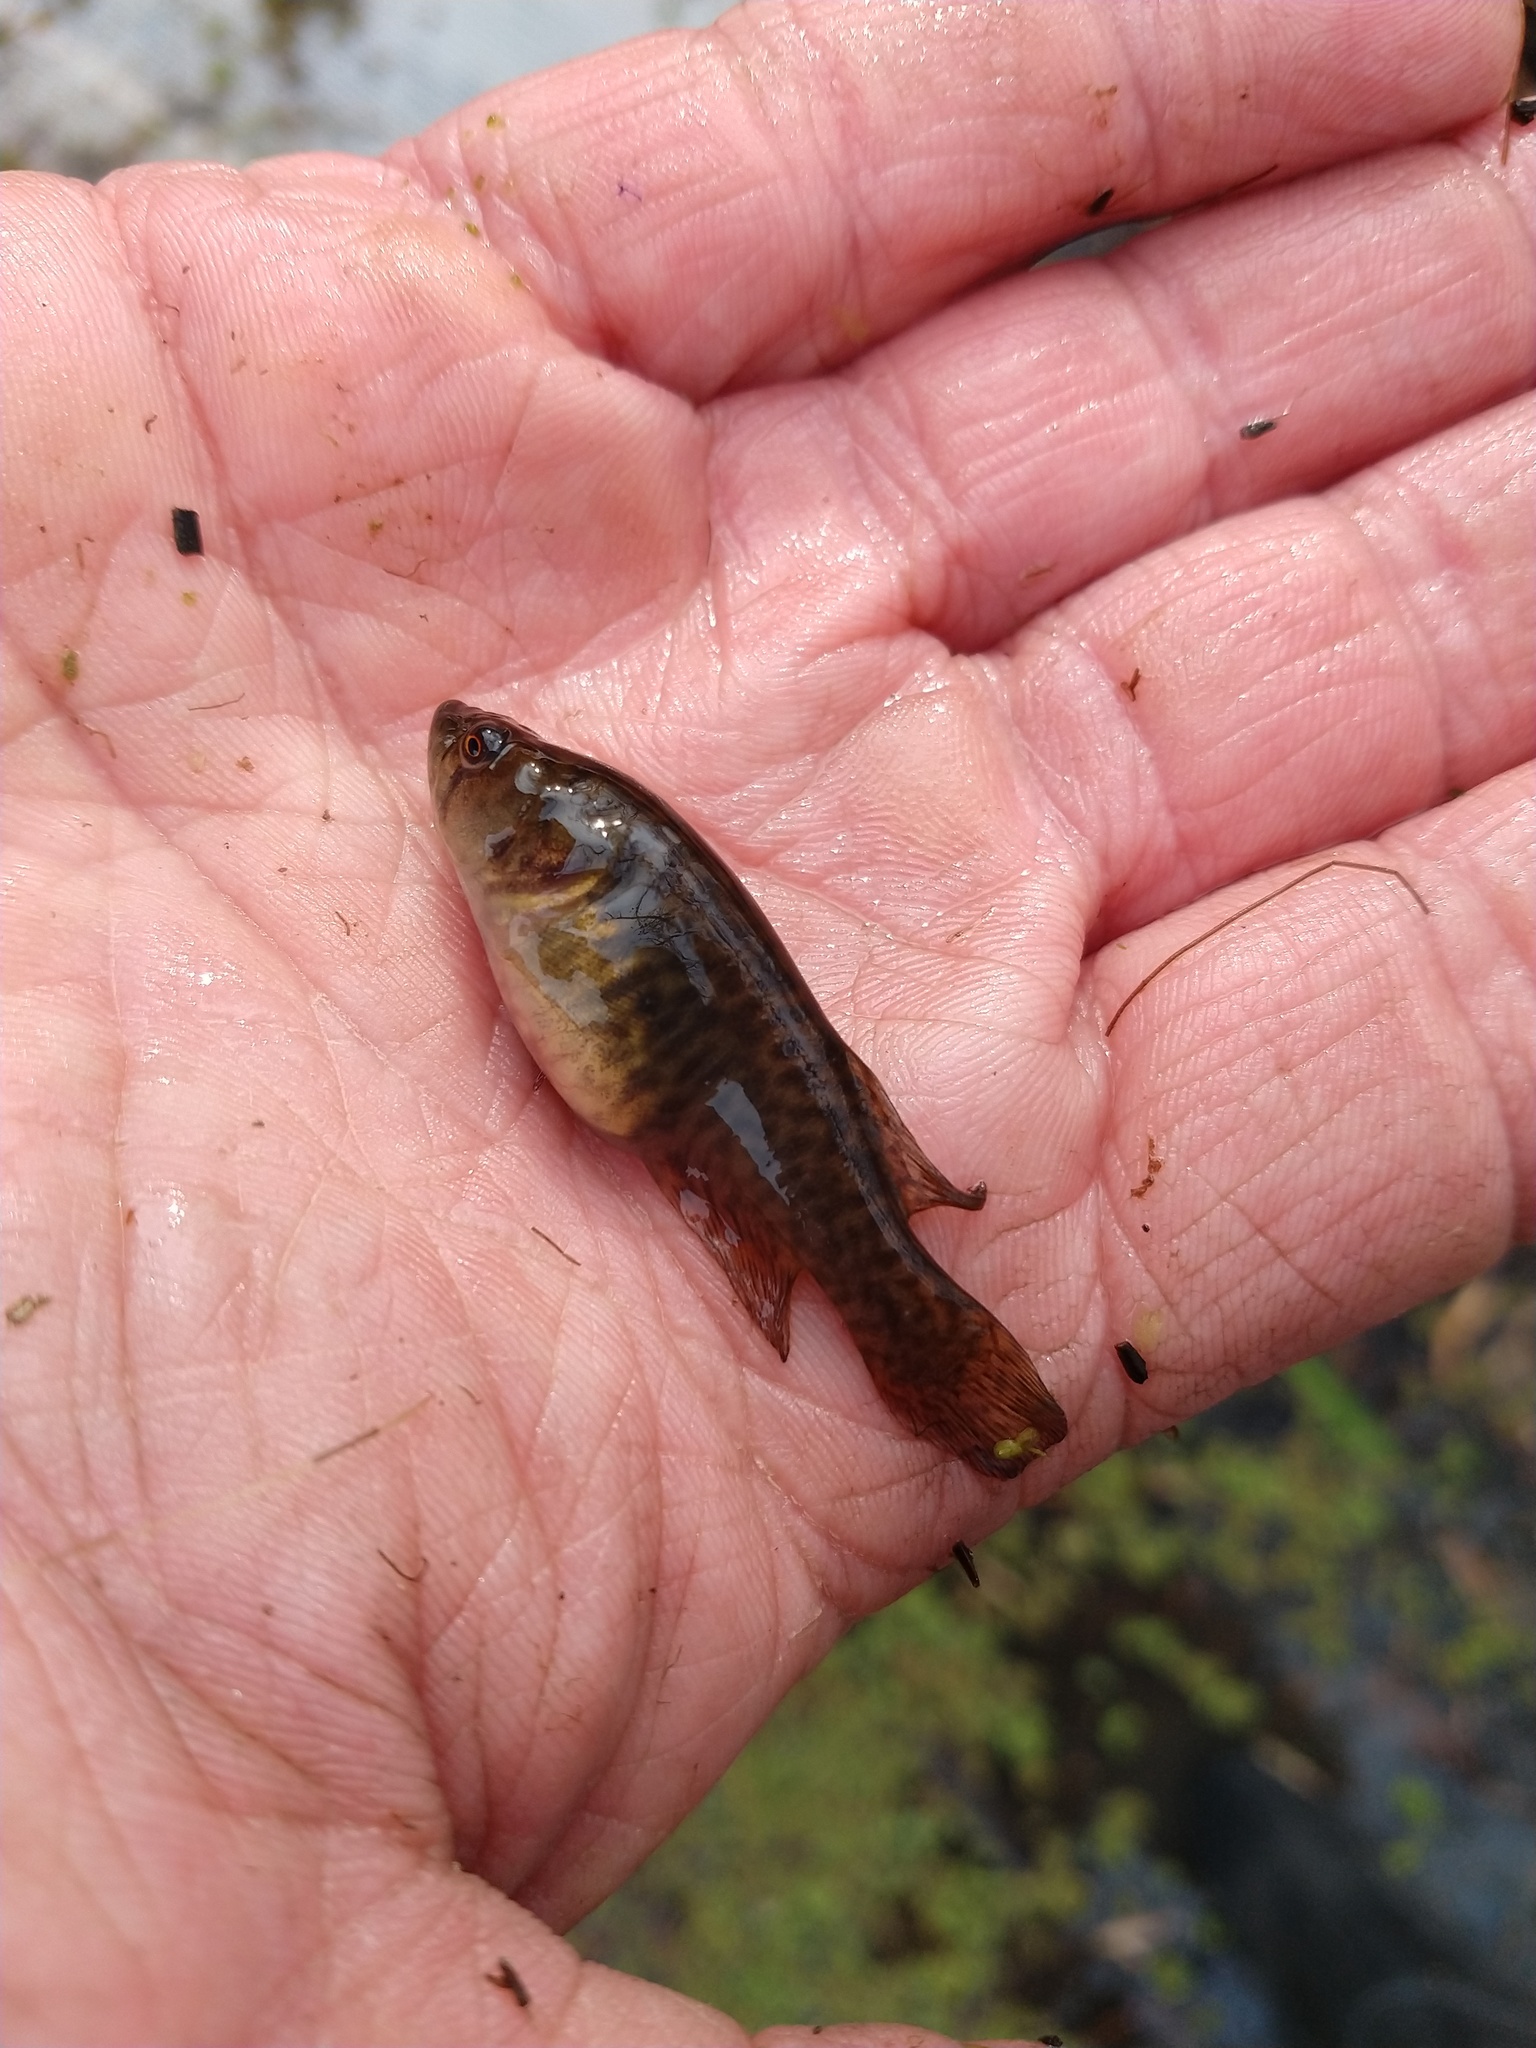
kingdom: Animalia
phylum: Chordata
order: Cyprinodontiformes
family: Rivulidae
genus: Austrolebias
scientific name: Austrolebias elongatus
